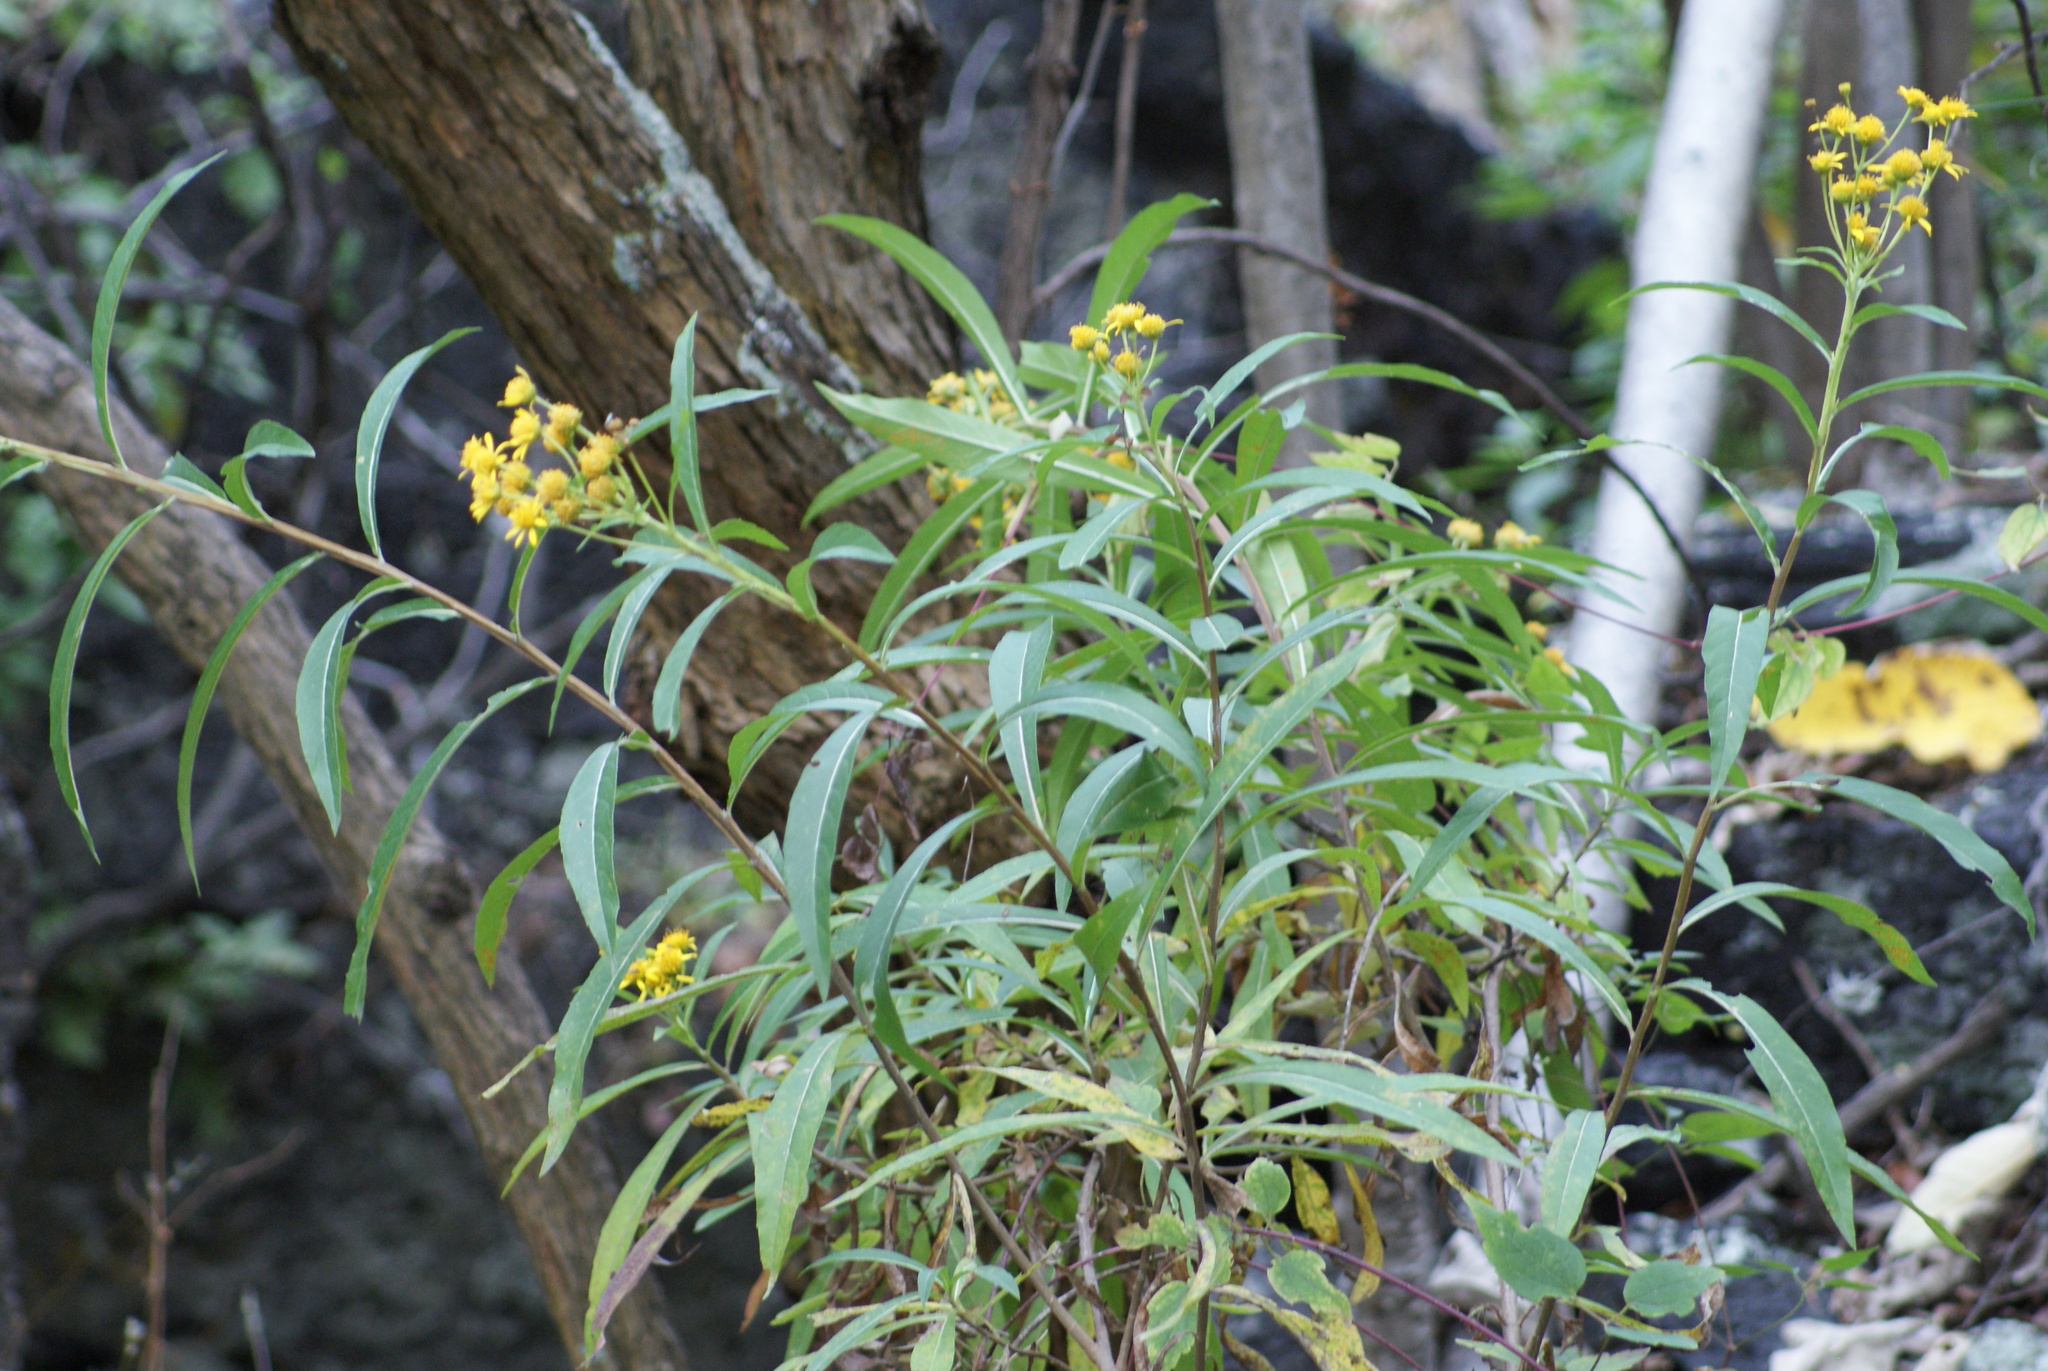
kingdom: Plantae
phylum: Tracheophyta
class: Magnoliopsida
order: Asterales
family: Asteraceae
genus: Verbesina
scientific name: Verbesina virgata
